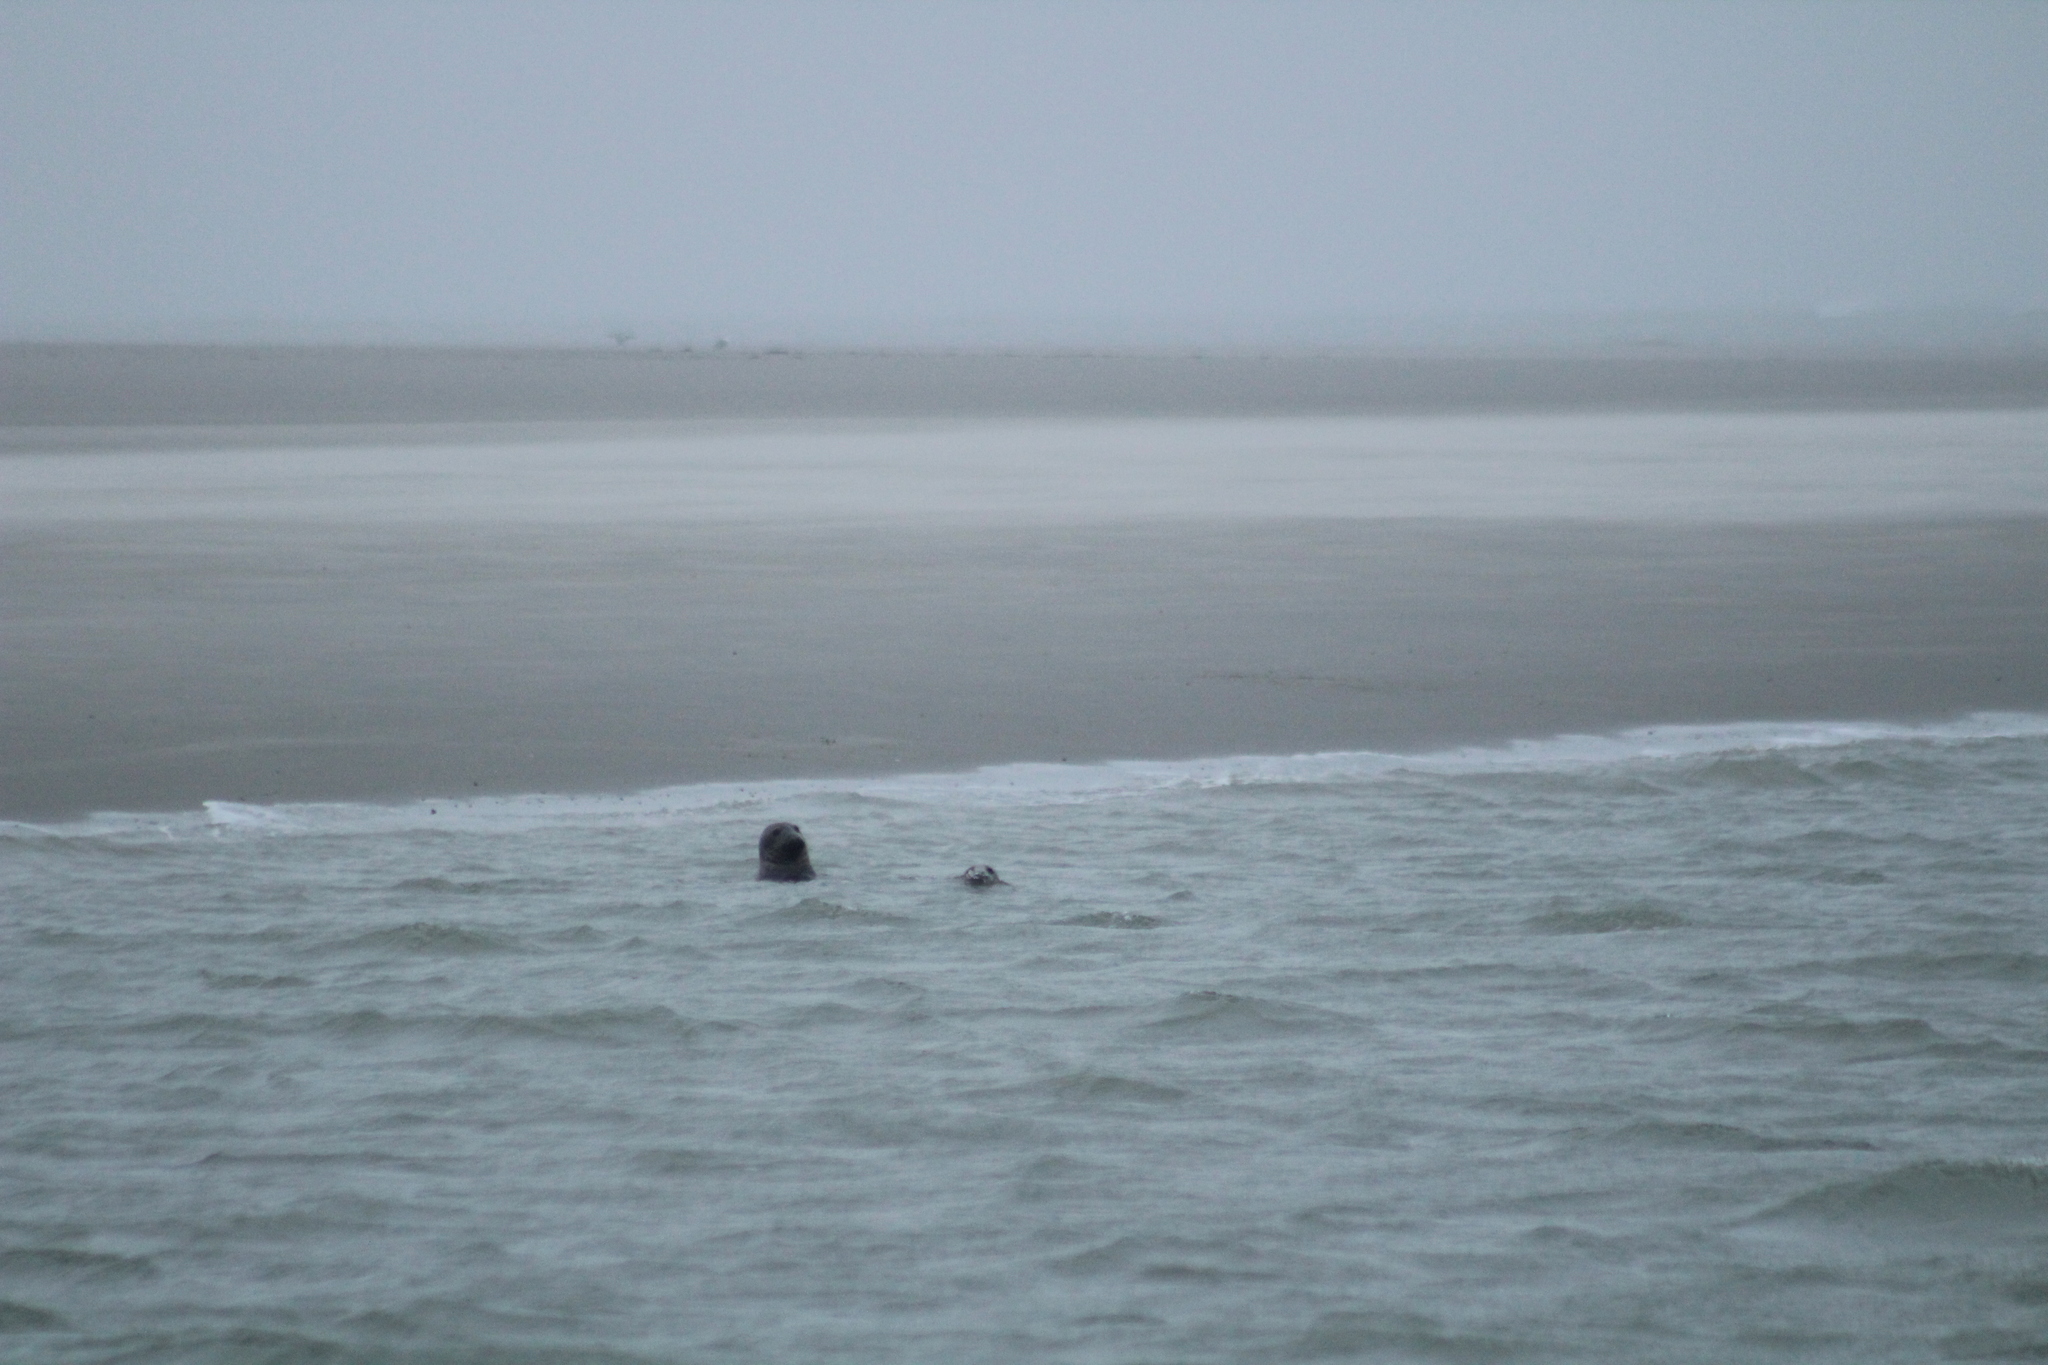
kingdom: Animalia
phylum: Chordata
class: Mammalia
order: Carnivora
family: Phocidae
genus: Halichoerus
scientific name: Halichoerus grypus
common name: Grey seal
